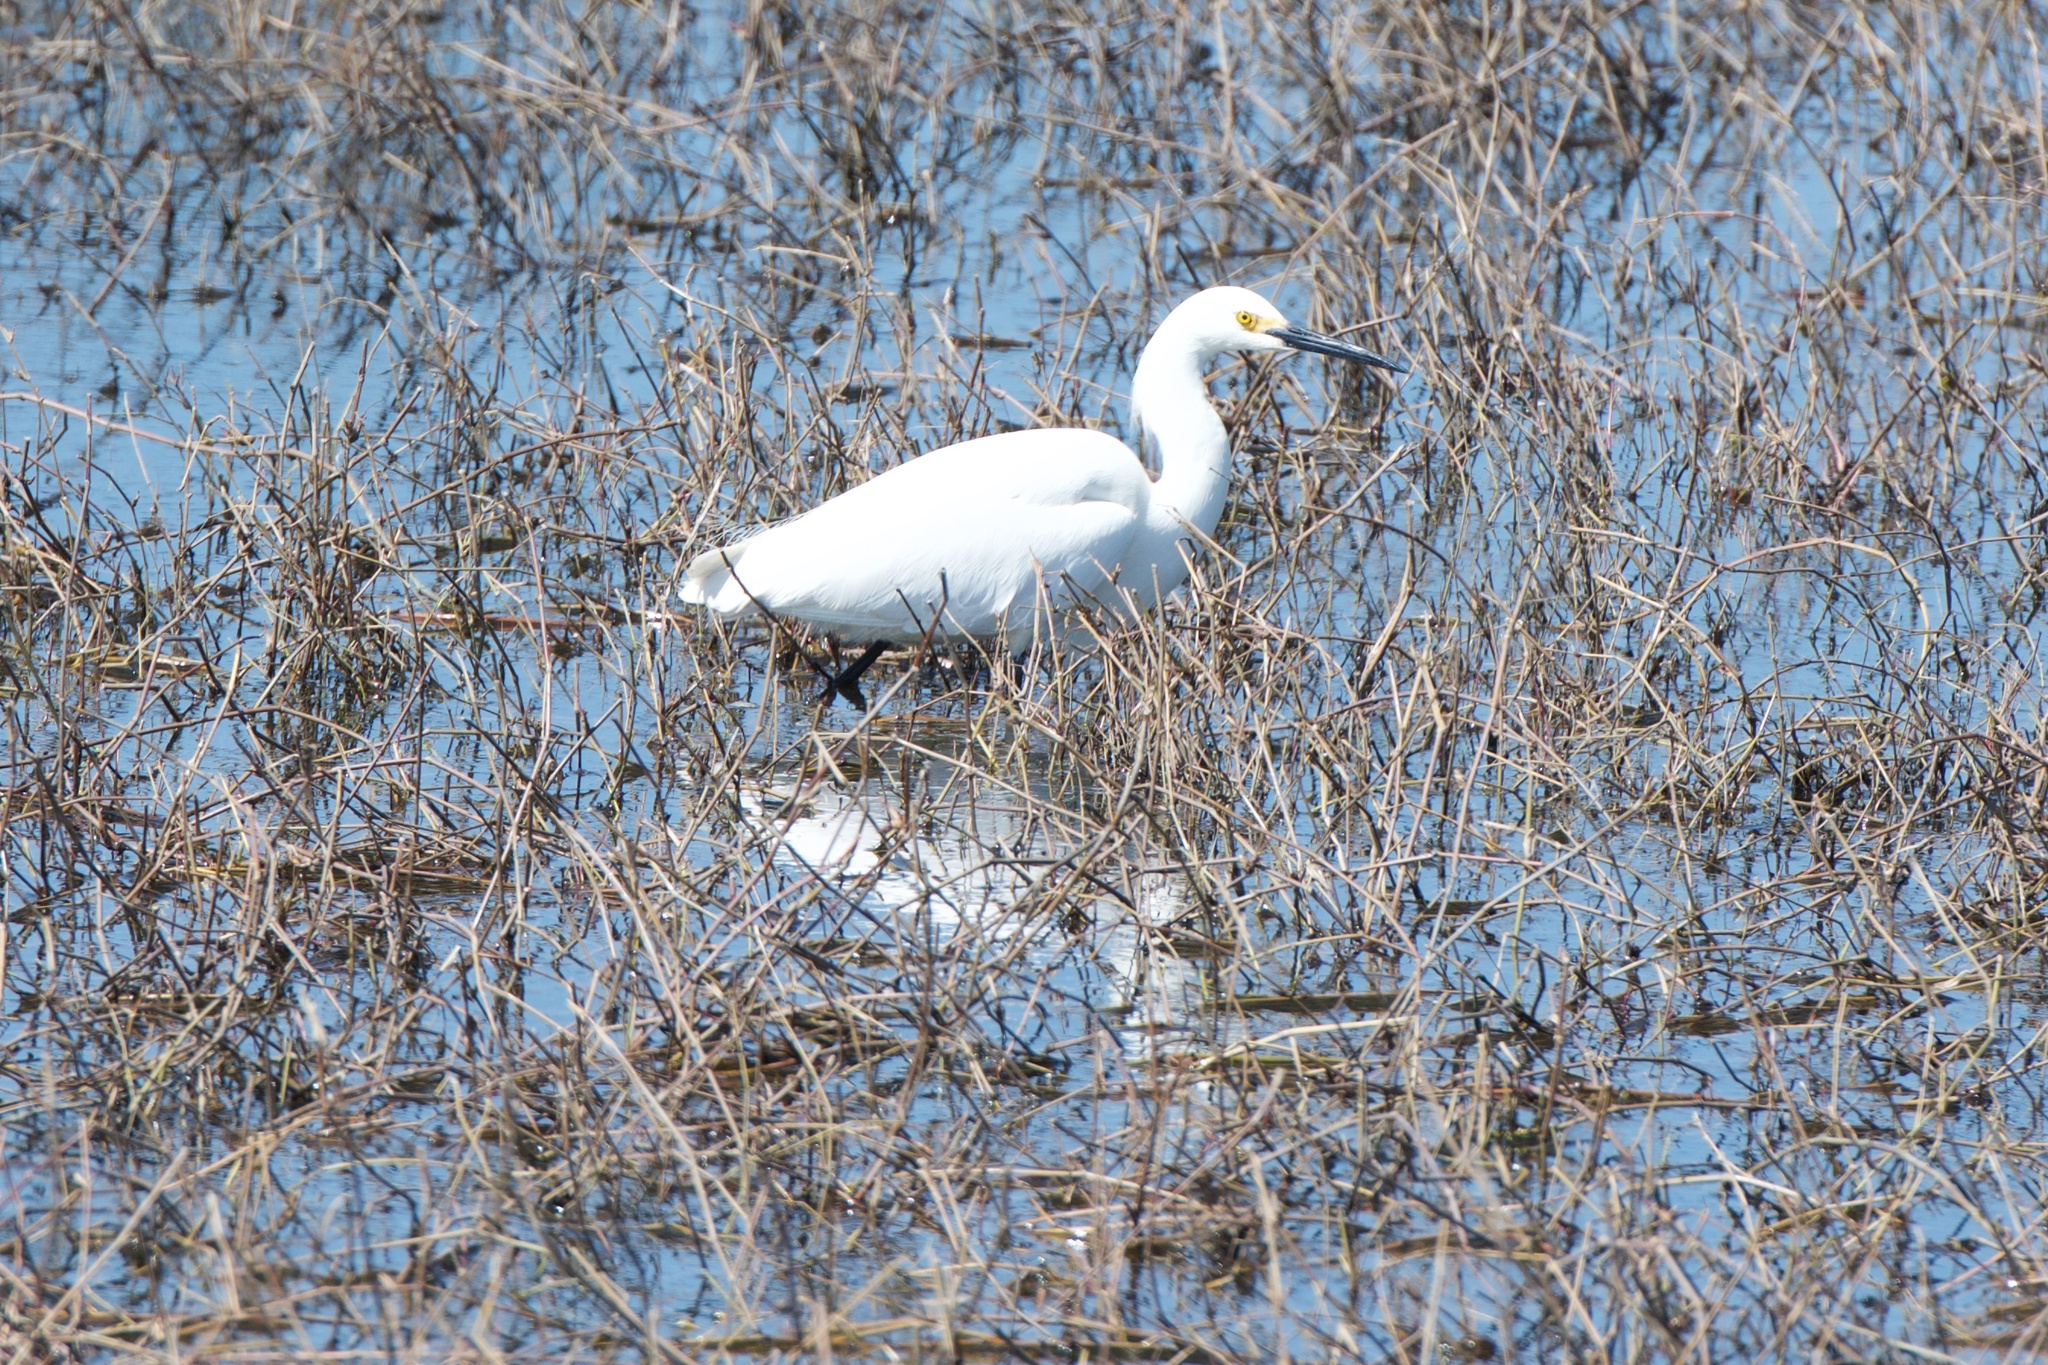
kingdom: Animalia
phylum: Chordata
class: Aves
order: Pelecaniformes
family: Ardeidae
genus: Egretta
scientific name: Egretta thula
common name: Snowy egret
